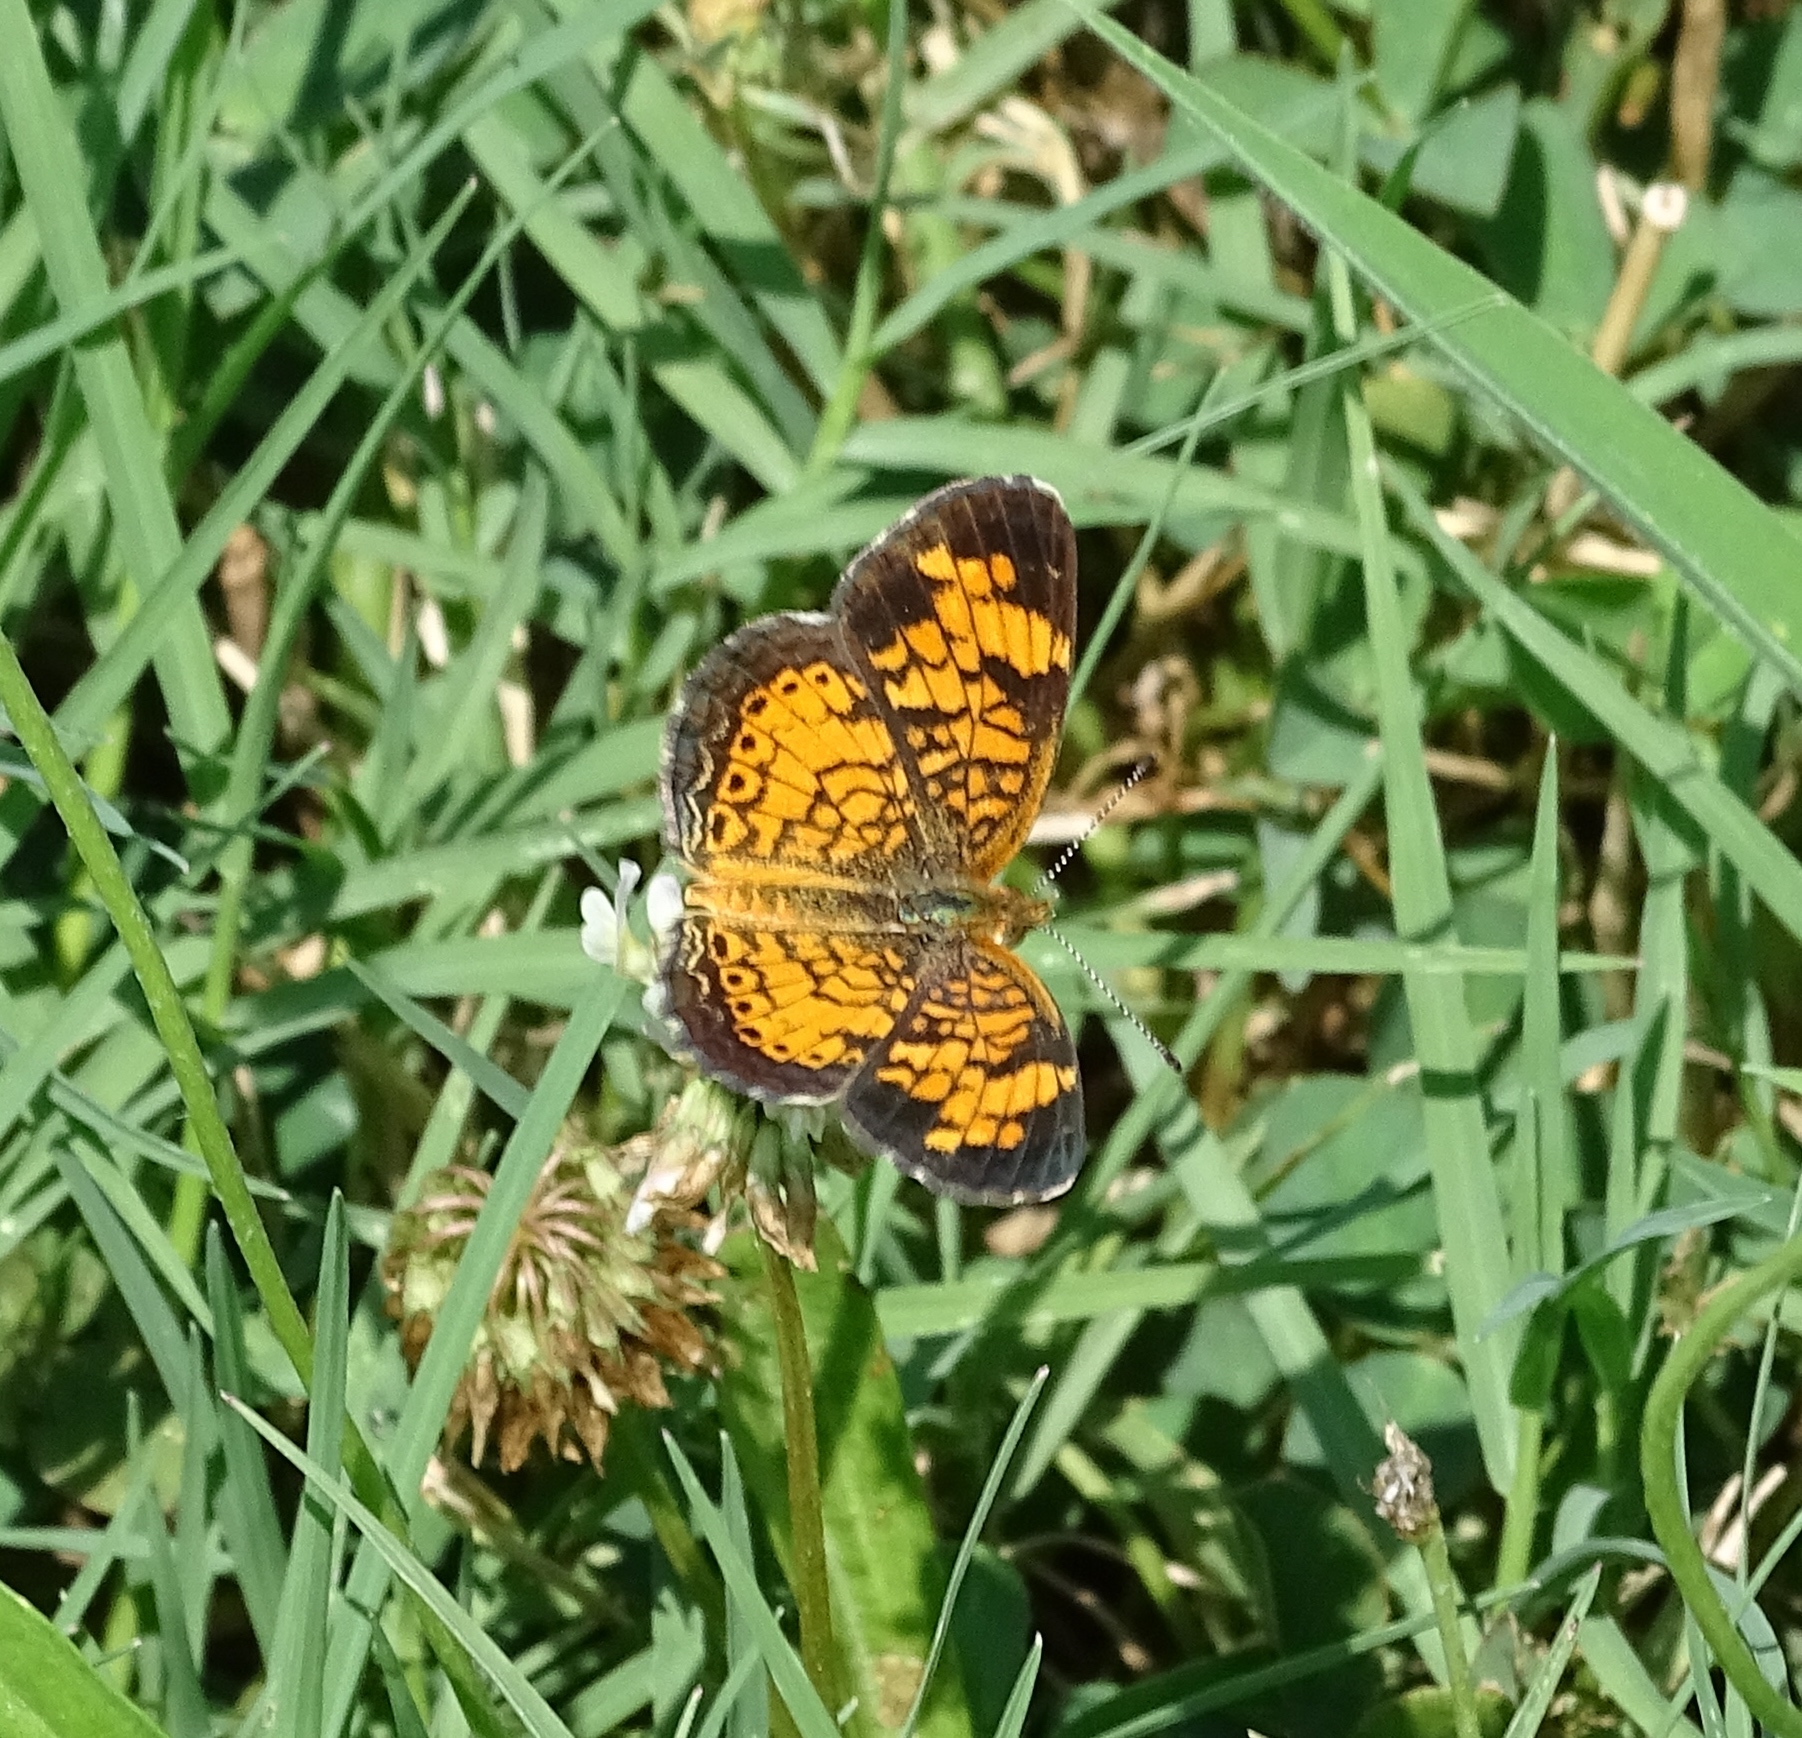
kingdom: Animalia
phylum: Arthropoda
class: Insecta
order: Lepidoptera
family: Nymphalidae
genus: Phyciodes
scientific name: Phyciodes tharos
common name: Pearl crescent
